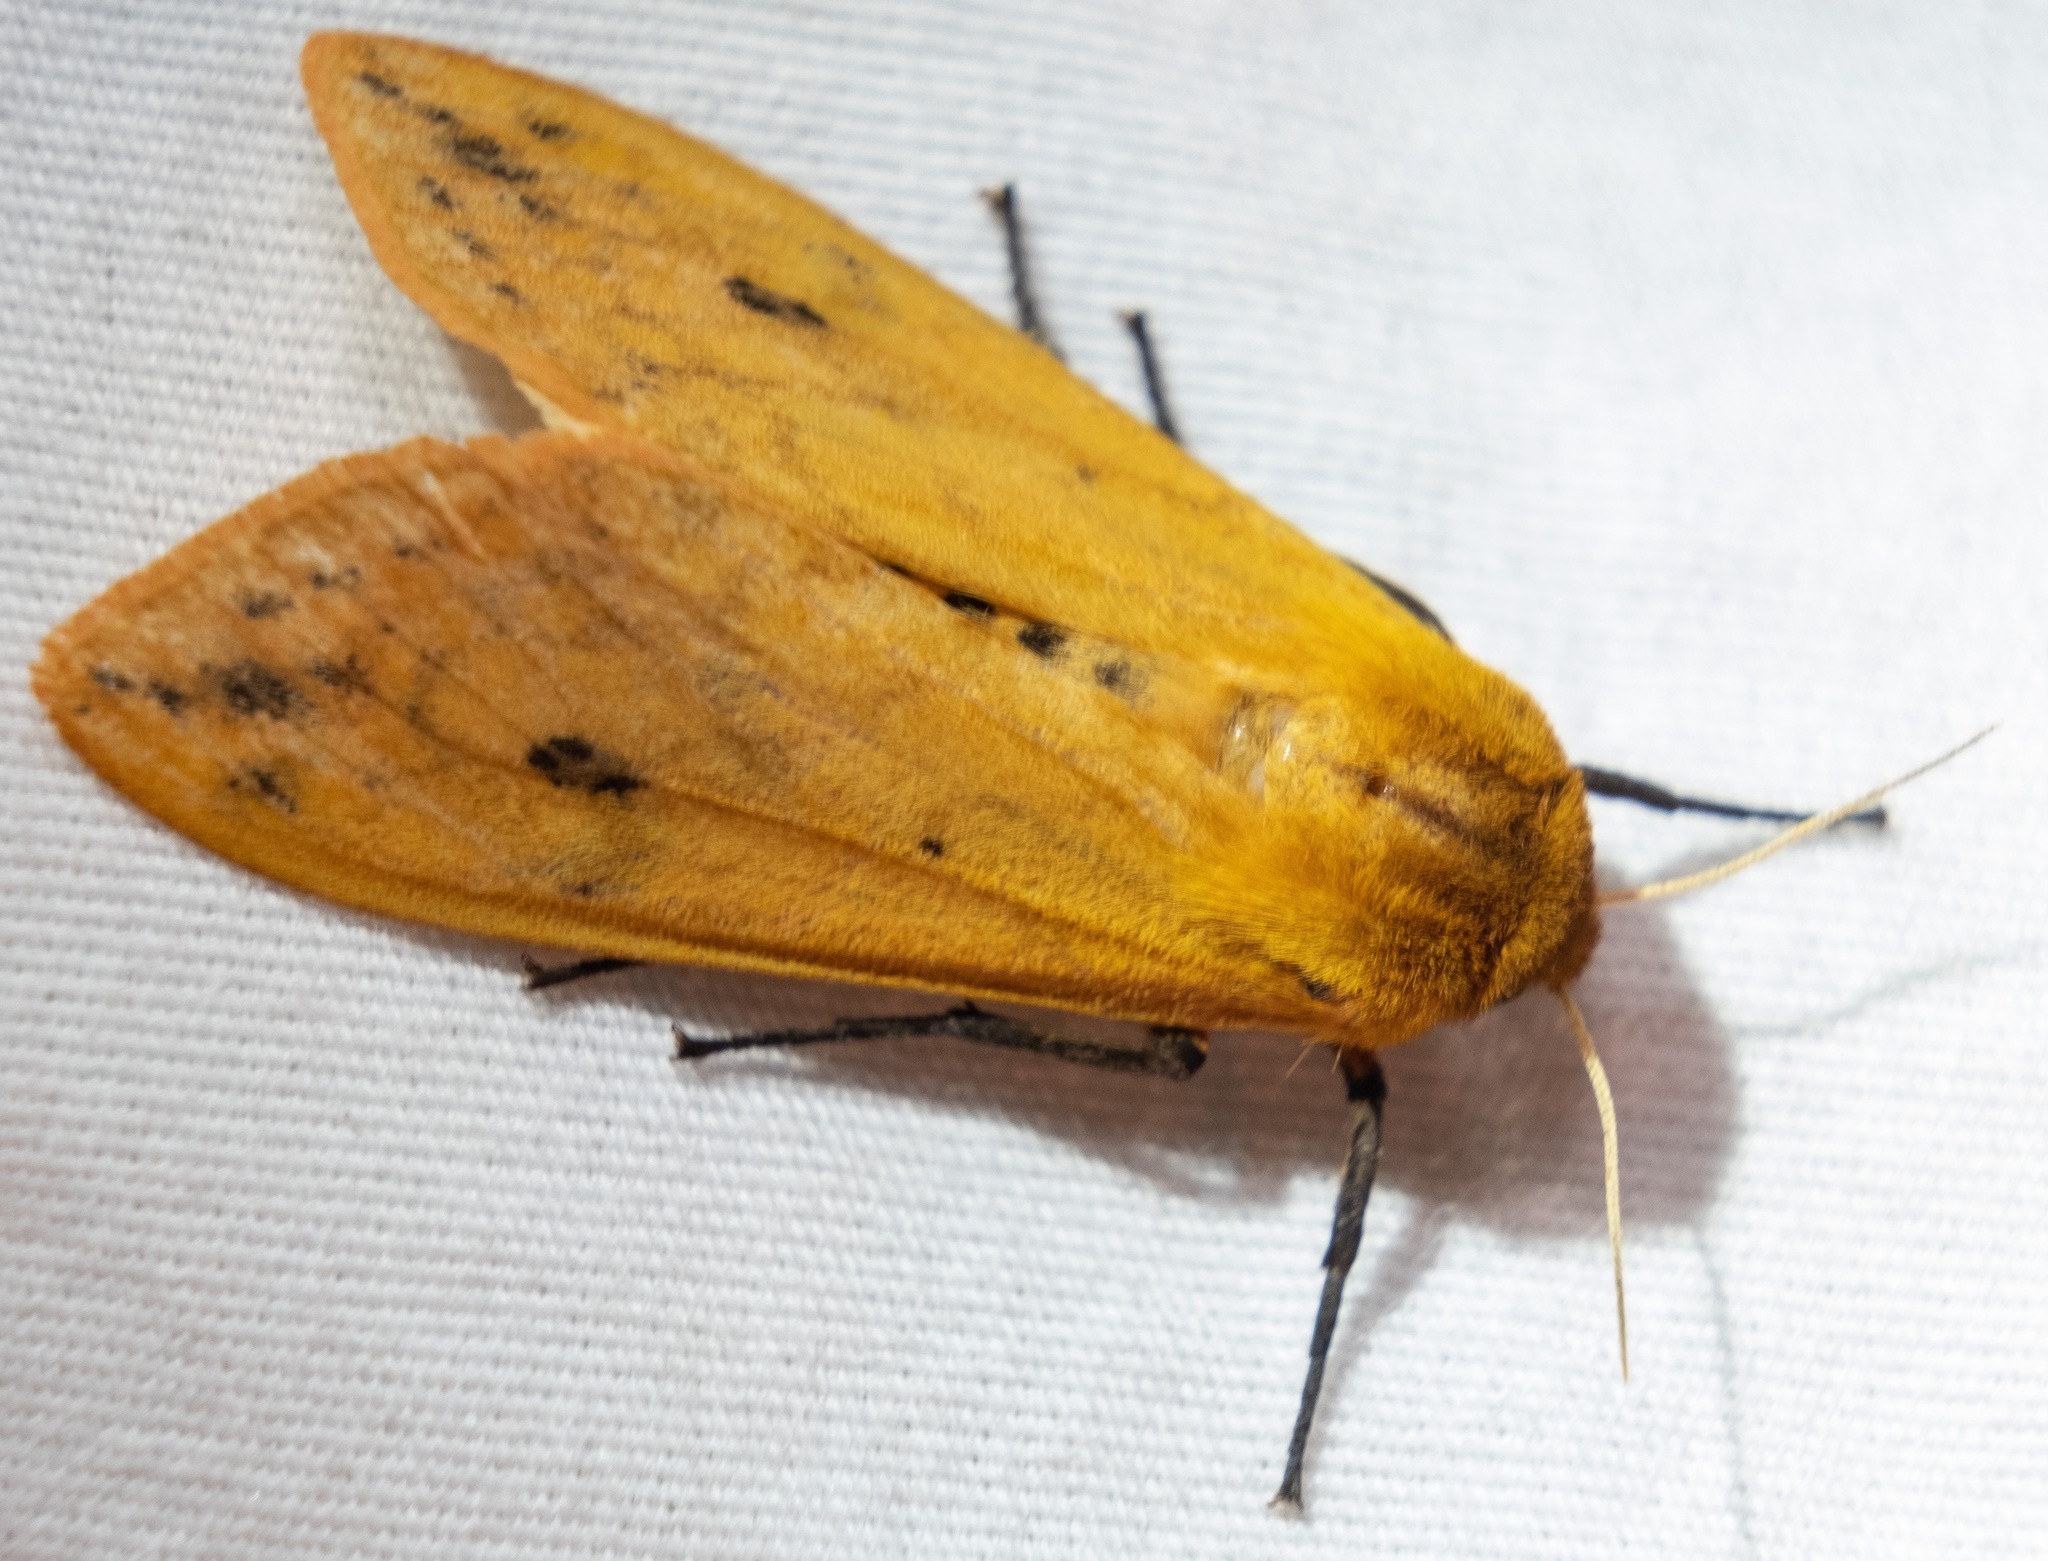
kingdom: Animalia
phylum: Arthropoda
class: Insecta
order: Lepidoptera
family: Erebidae
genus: Pyrrharctia
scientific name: Pyrrharctia isabella
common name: Isabella tiger moth
